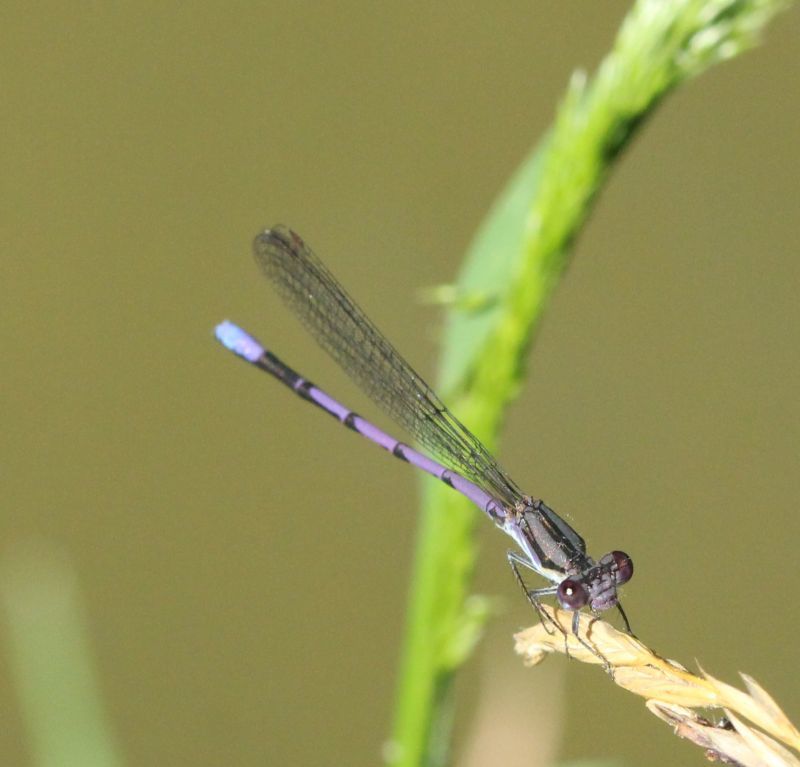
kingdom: Animalia
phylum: Arthropoda
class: Insecta
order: Odonata
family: Coenagrionidae
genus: Argia
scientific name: Argia fumipennis
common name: Variable dancer
